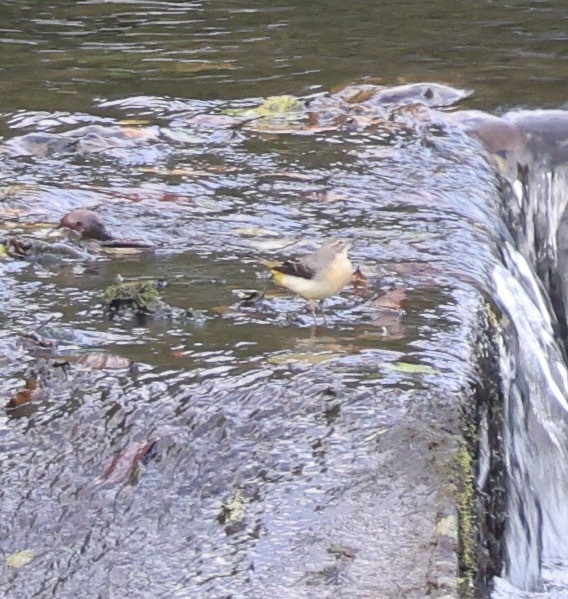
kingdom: Animalia
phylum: Chordata
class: Aves
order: Passeriformes
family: Motacillidae
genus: Motacilla
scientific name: Motacilla cinerea
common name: Grey wagtail
